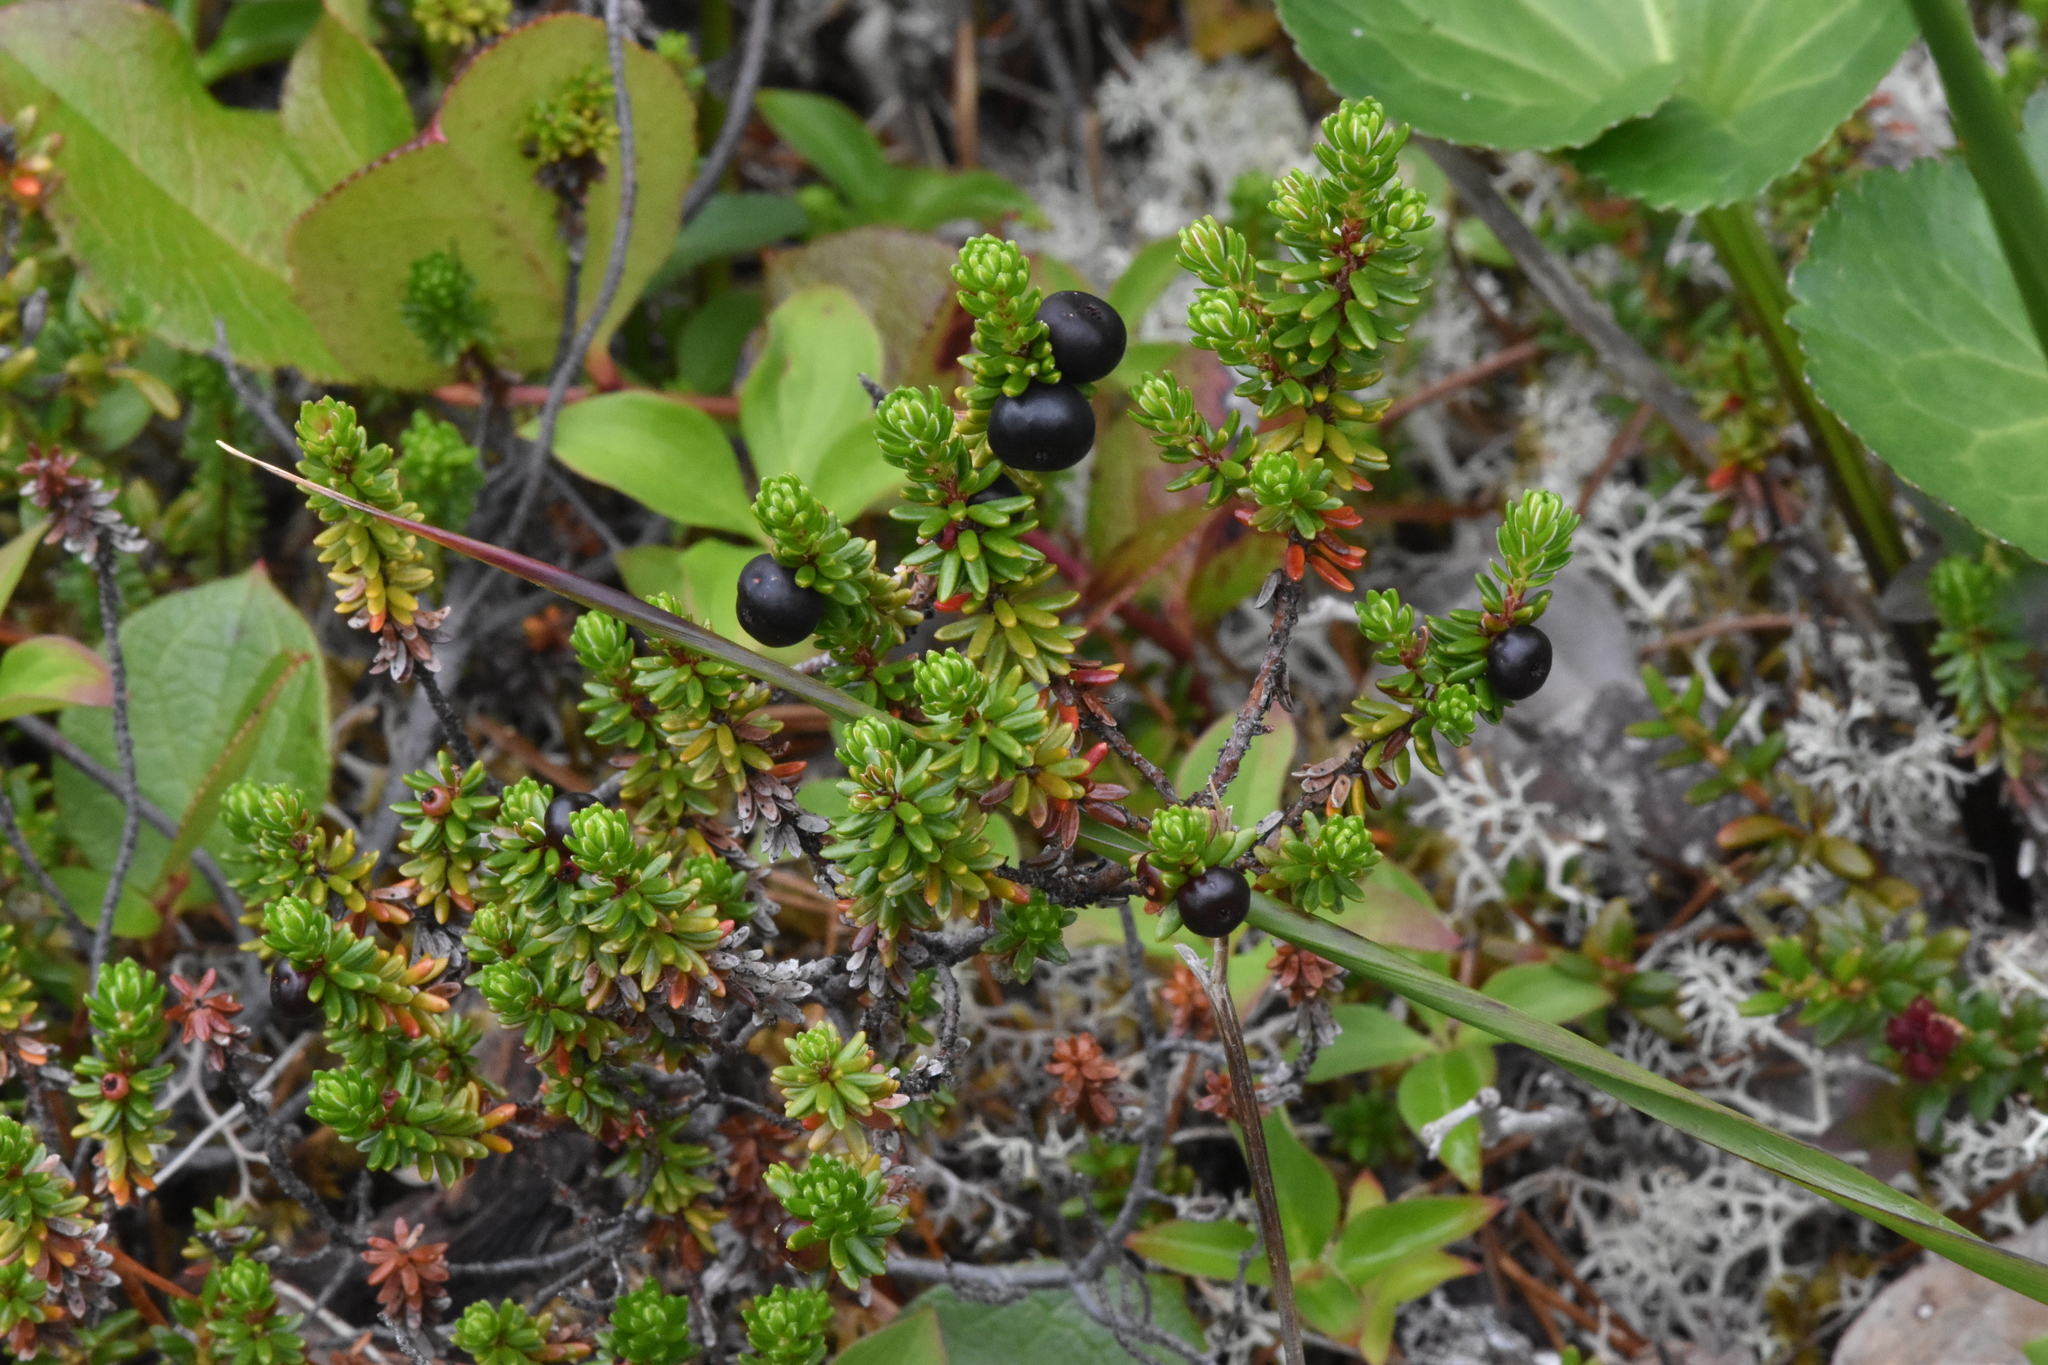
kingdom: Plantae
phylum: Tracheophyta
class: Magnoliopsida
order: Ericales
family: Ericaceae
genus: Empetrum
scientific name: Empetrum nigrum
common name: Black crowberry
